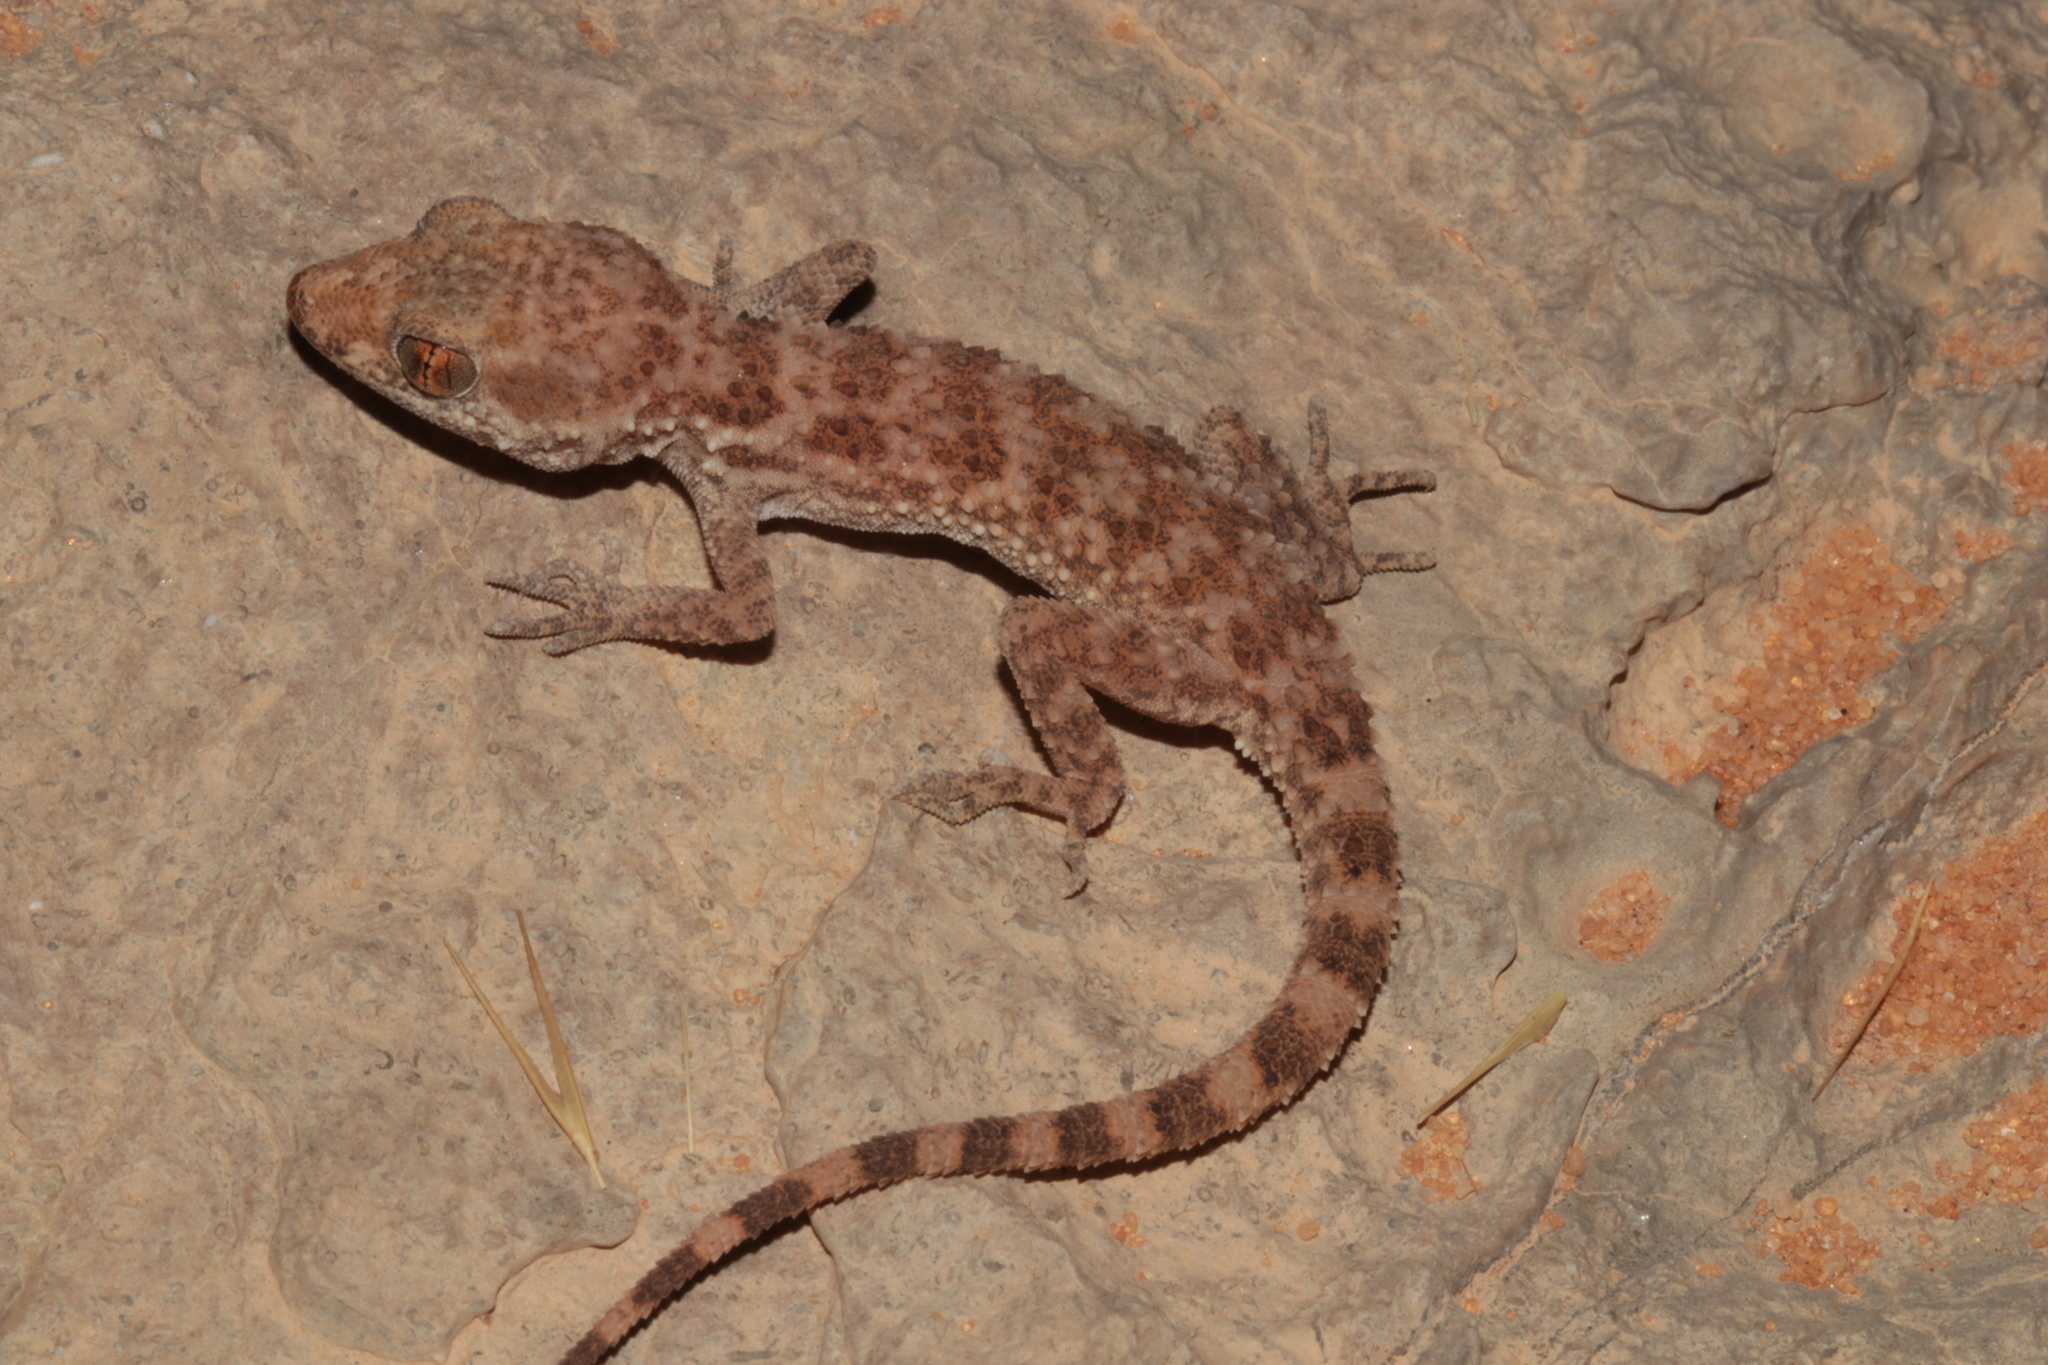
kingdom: Animalia
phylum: Chordata
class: Squamata
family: Gekkonidae
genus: Bunopus
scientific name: Bunopus tuberculatus
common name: Southern tuberculated gecko
